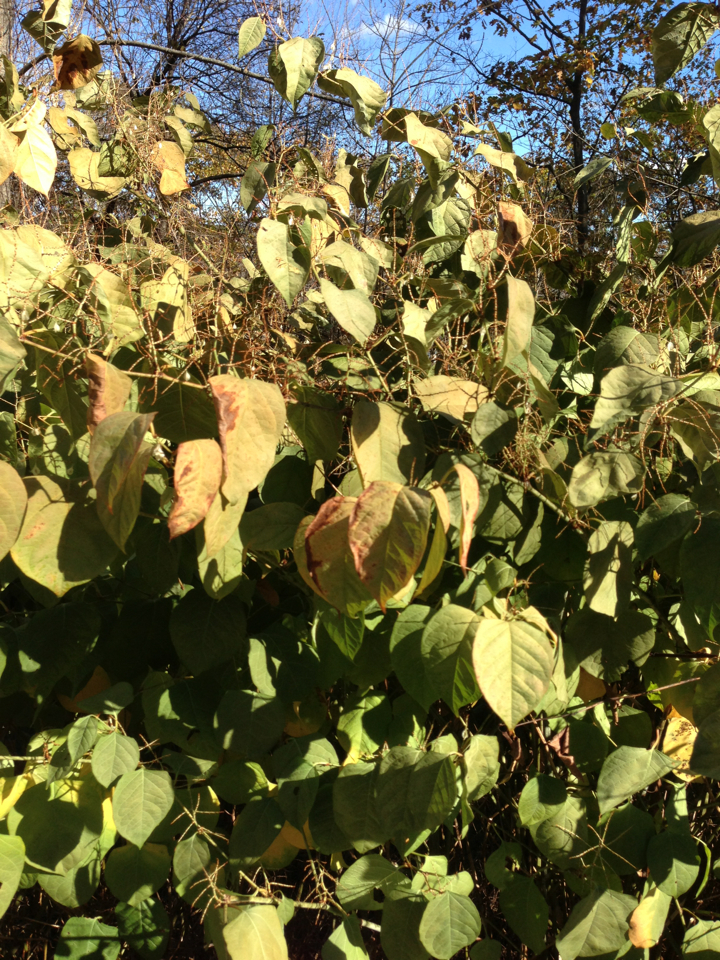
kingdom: Plantae
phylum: Tracheophyta
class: Magnoliopsida
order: Caryophyllales
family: Polygonaceae
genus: Reynoutria
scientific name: Reynoutria japonica
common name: Japanese knotweed
